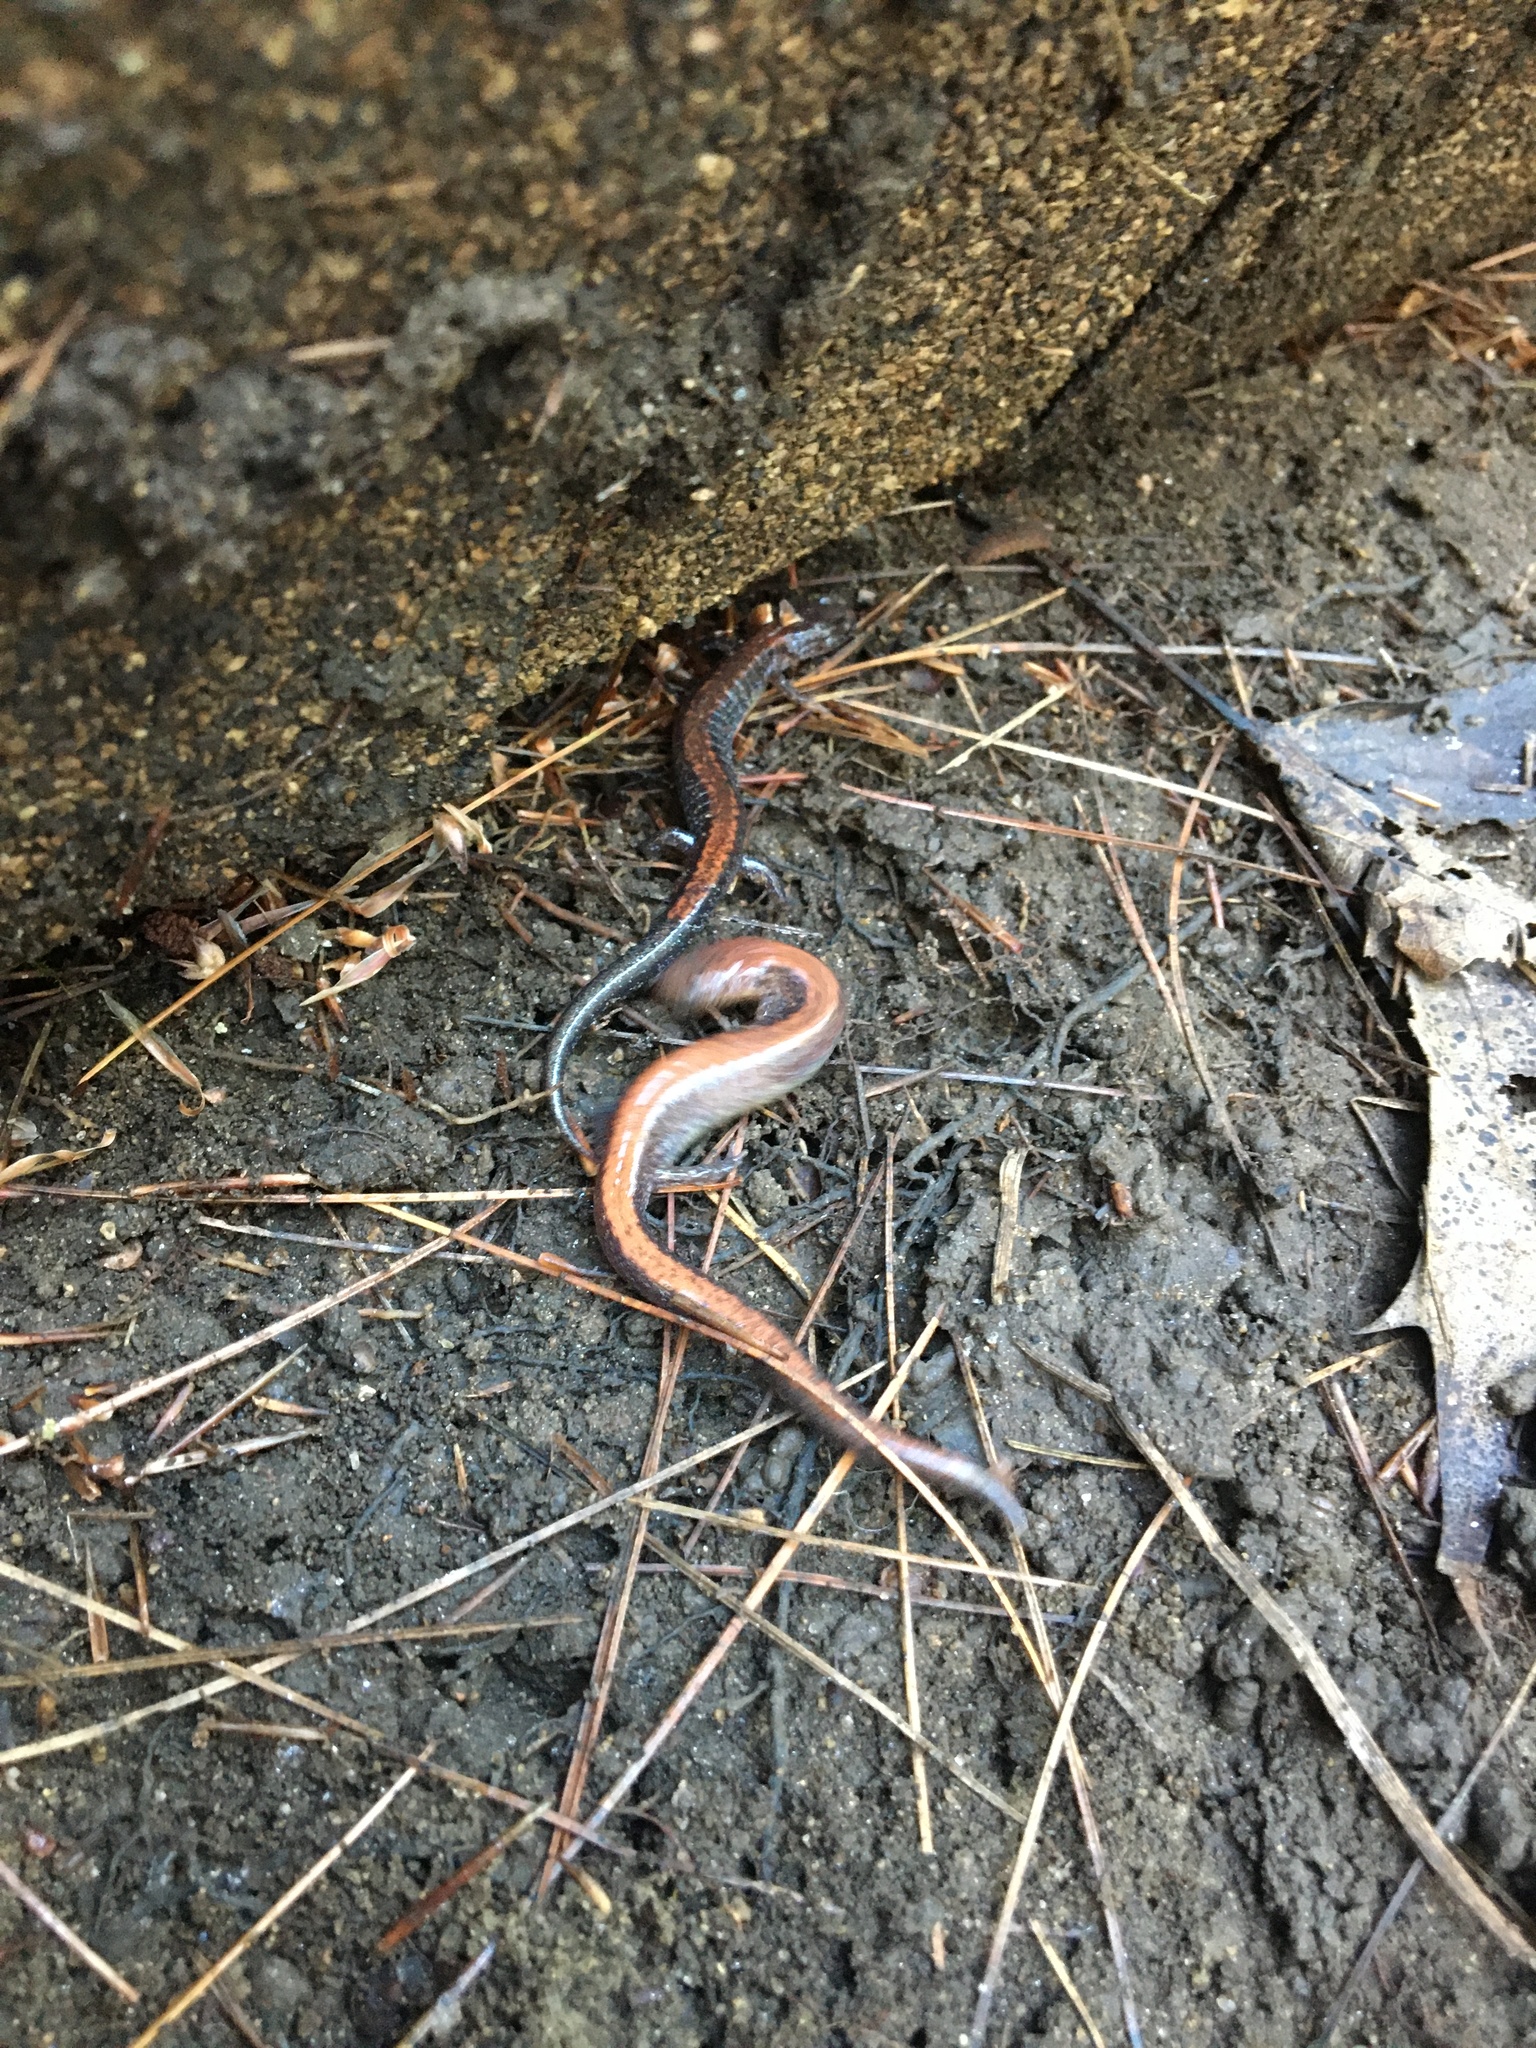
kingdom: Animalia
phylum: Chordata
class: Amphibia
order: Caudata
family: Plethodontidae
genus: Plethodon
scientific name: Plethodon cinereus
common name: Redback salamander
